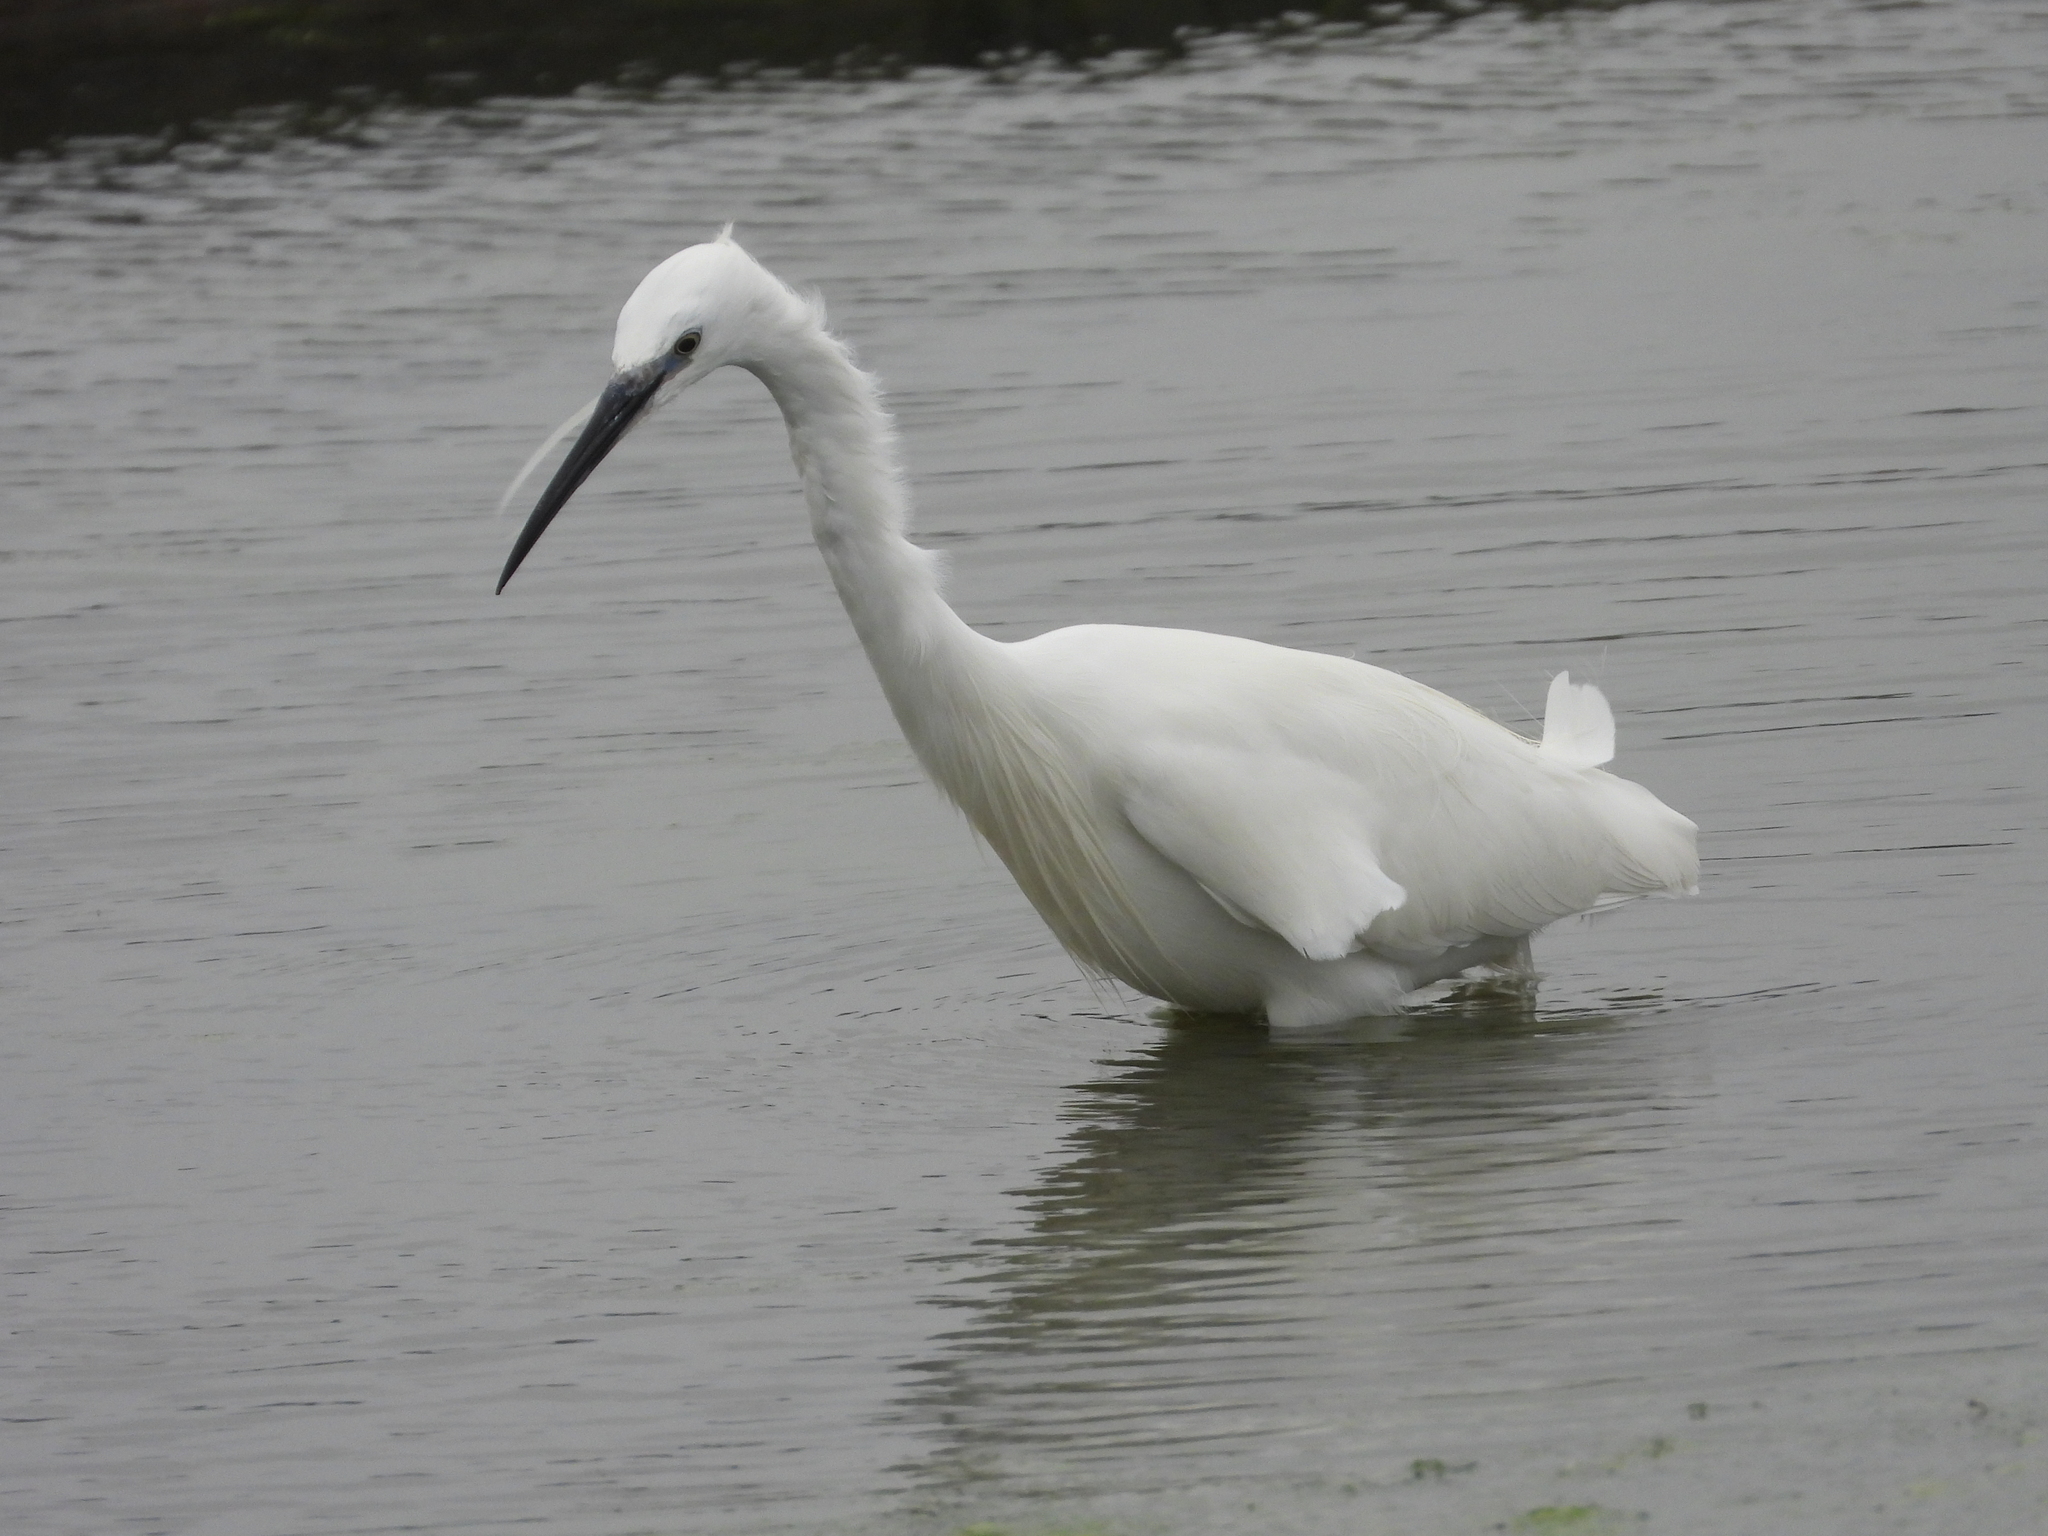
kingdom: Animalia
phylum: Chordata
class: Aves
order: Pelecaniformes
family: Ardeidae
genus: Egretta
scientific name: Egretta garzetta
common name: Little egret
